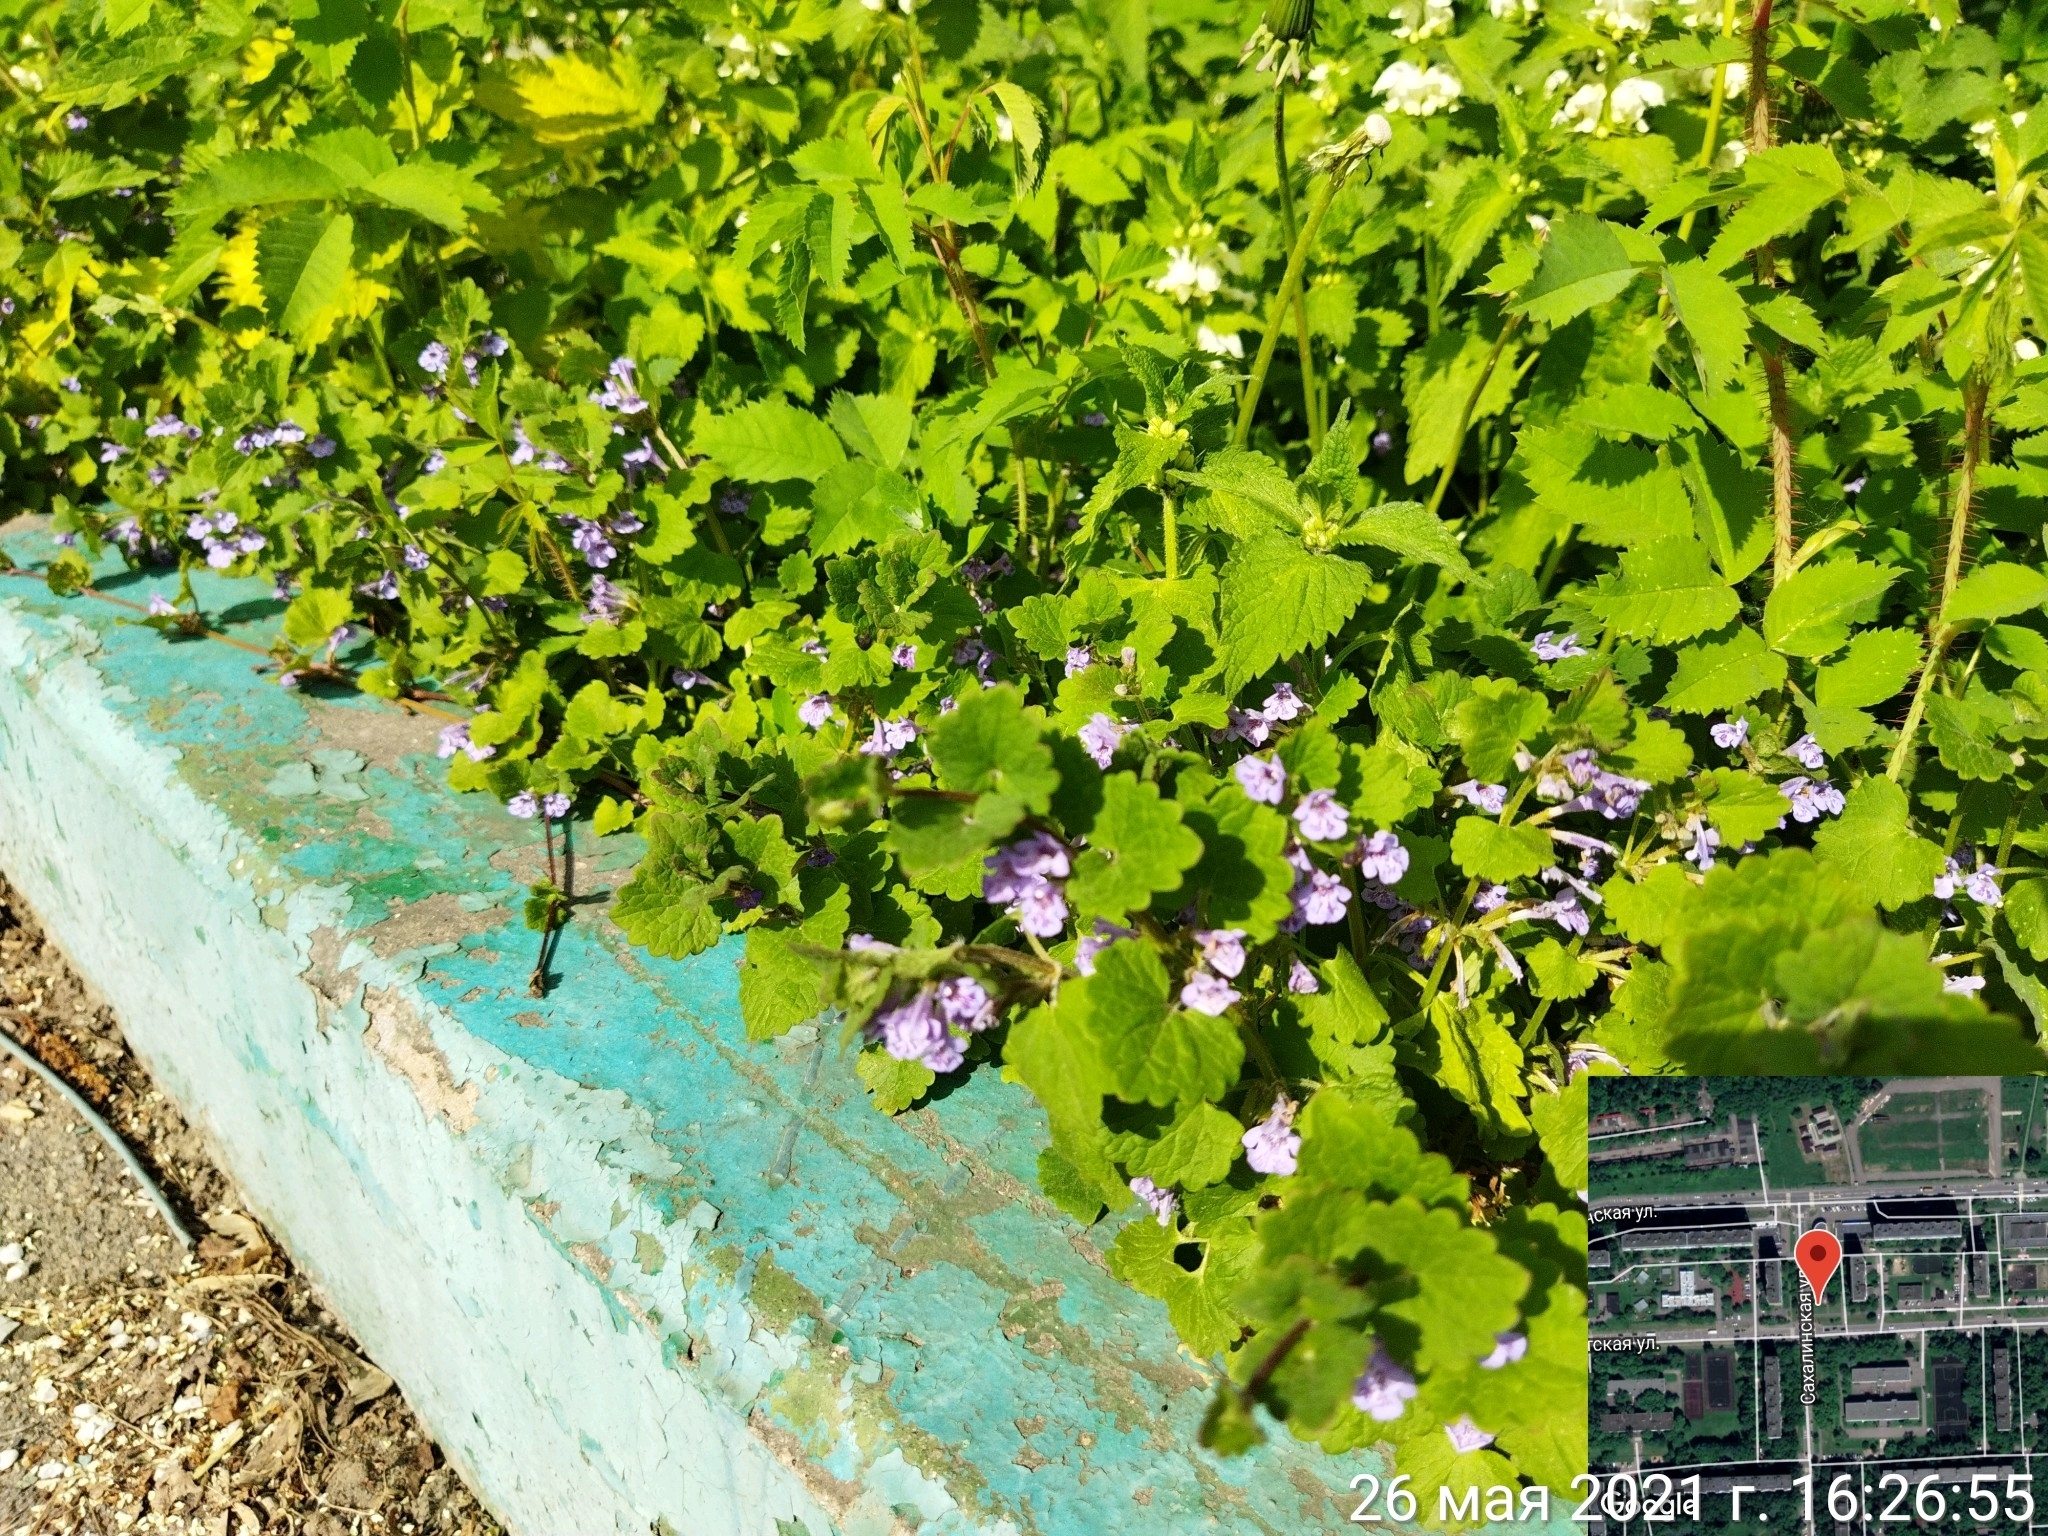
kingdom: Plantae
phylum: Tracheophyta
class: Magnoliopsida
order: Lamiales
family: Lamiaceae
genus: Glechoma
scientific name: Glechoma hederacea
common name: Ground ivy
